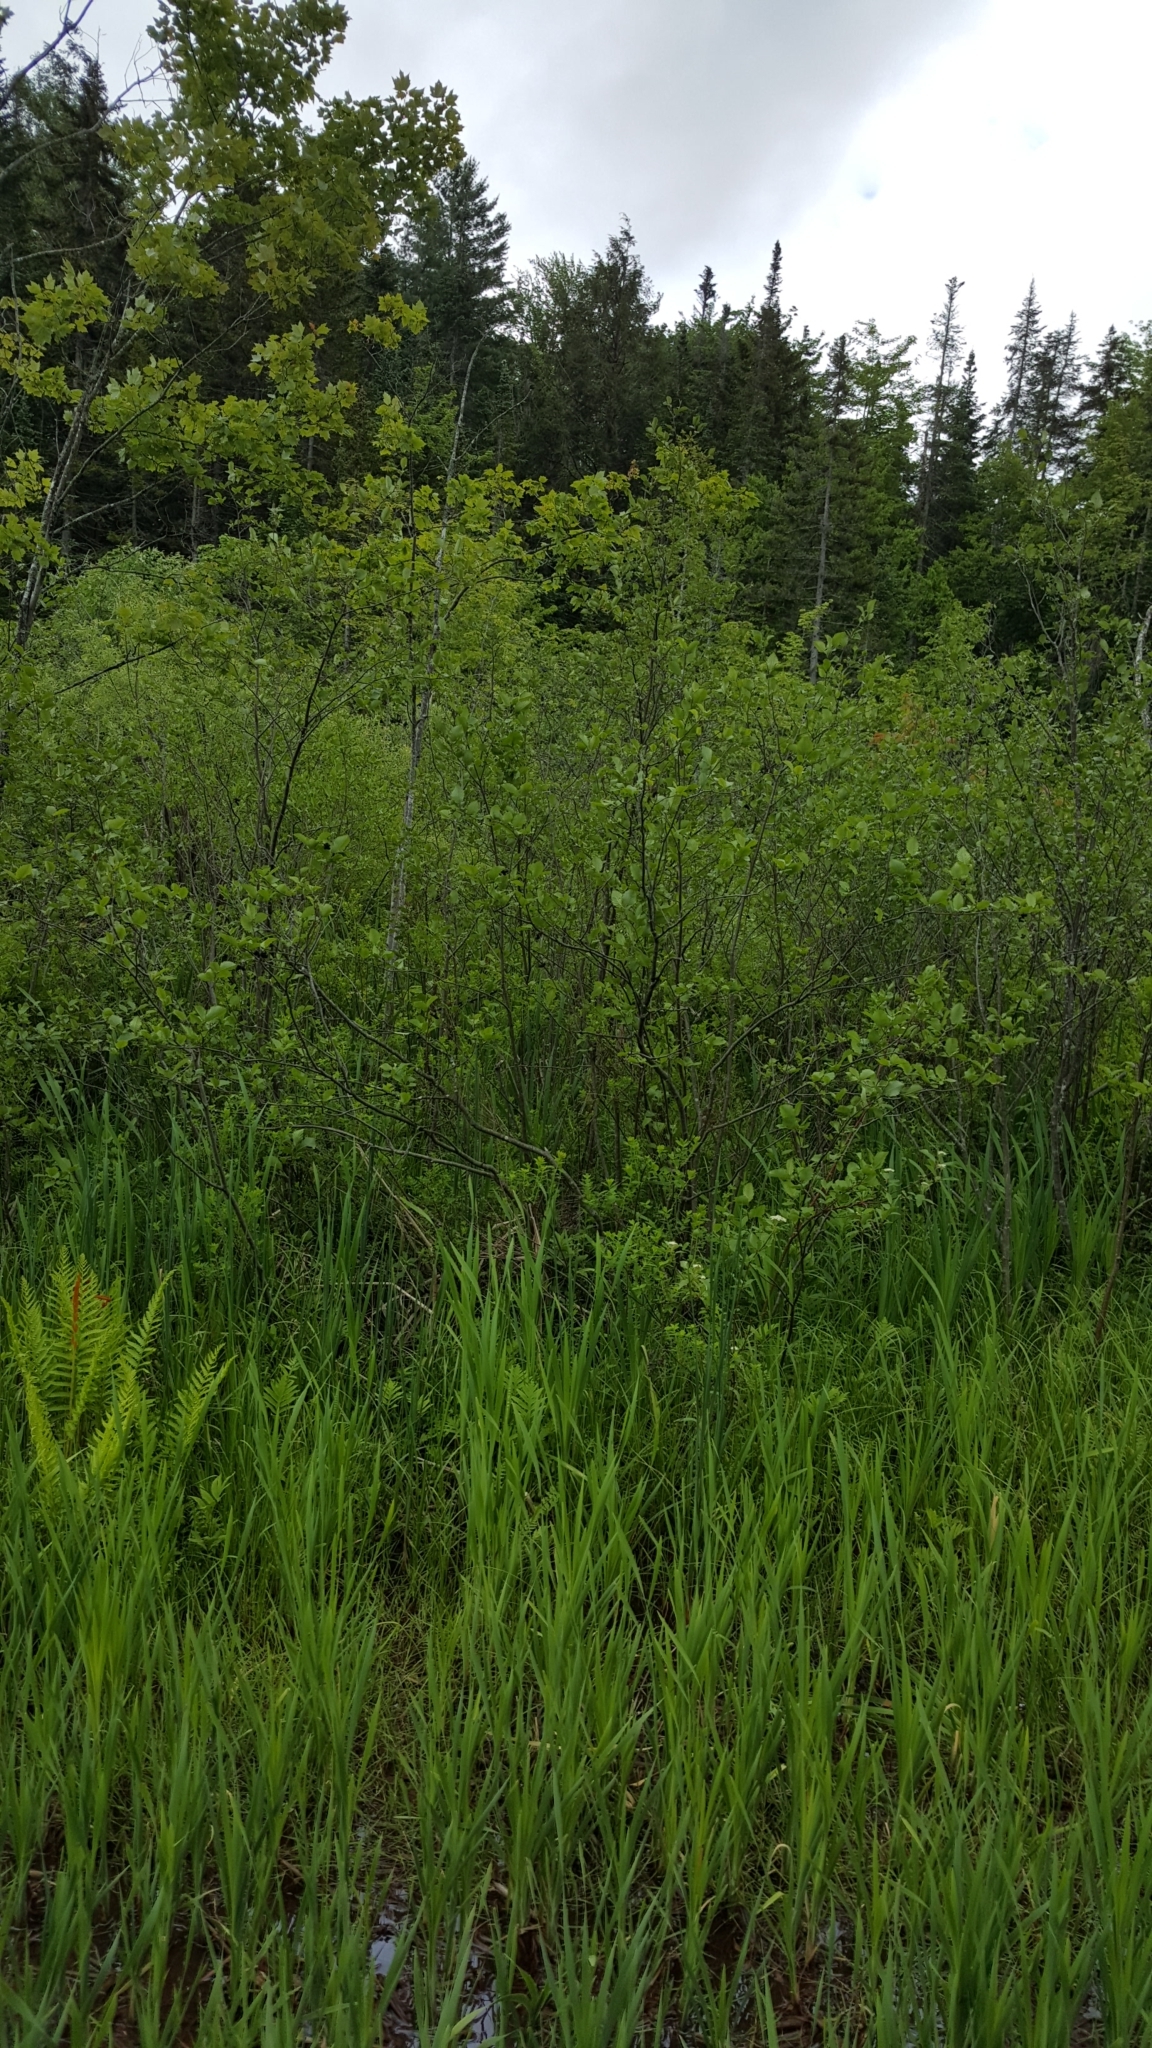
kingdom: Plantae
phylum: Tracheophyta
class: Magnoliopsida
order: Fagales
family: Betulaceae
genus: Alnus
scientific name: Alnus incana
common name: Grey alder
